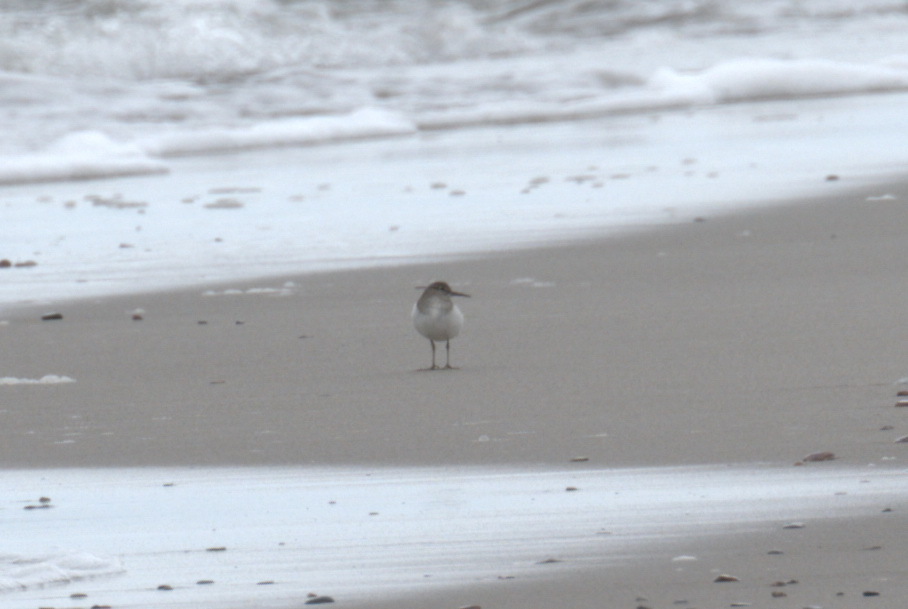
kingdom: Animalia
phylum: Chordata
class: Aves
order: Charadriiformes
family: Scolopacidae
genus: Actitis
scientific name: Actitis hypoleucos
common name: Common sandpiper
